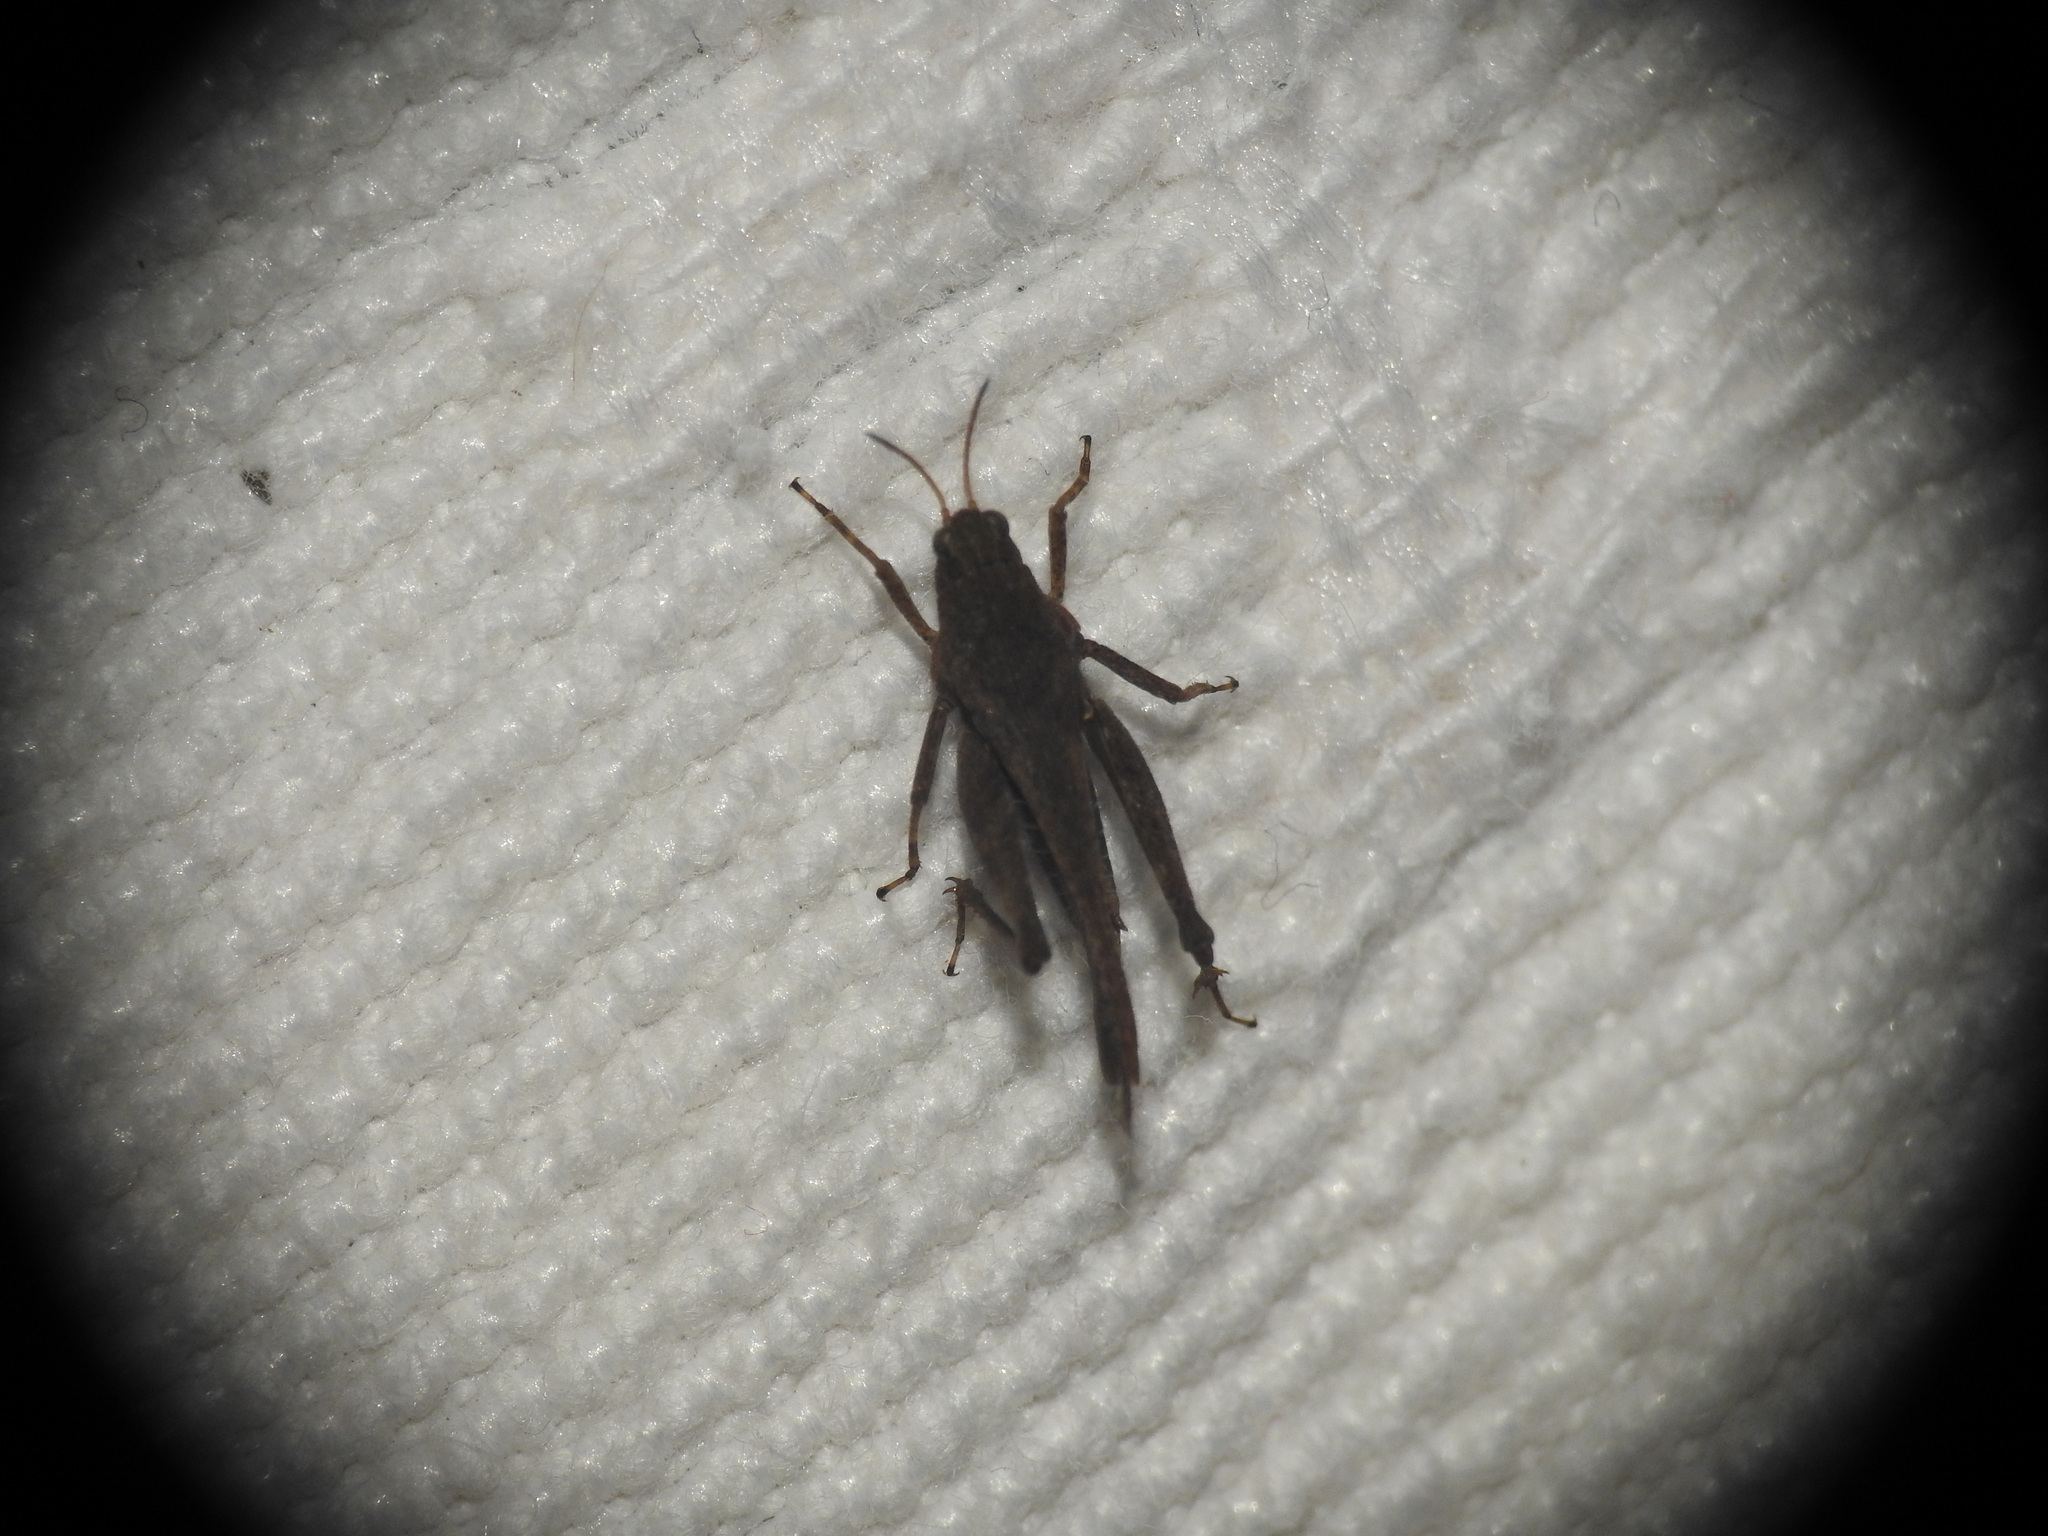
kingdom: Animalia
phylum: Arthropoda
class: Insecta
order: Orthoptera
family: Tetrigidae
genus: Tetrix
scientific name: Tetrix subulata
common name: Slender ground-hopper
